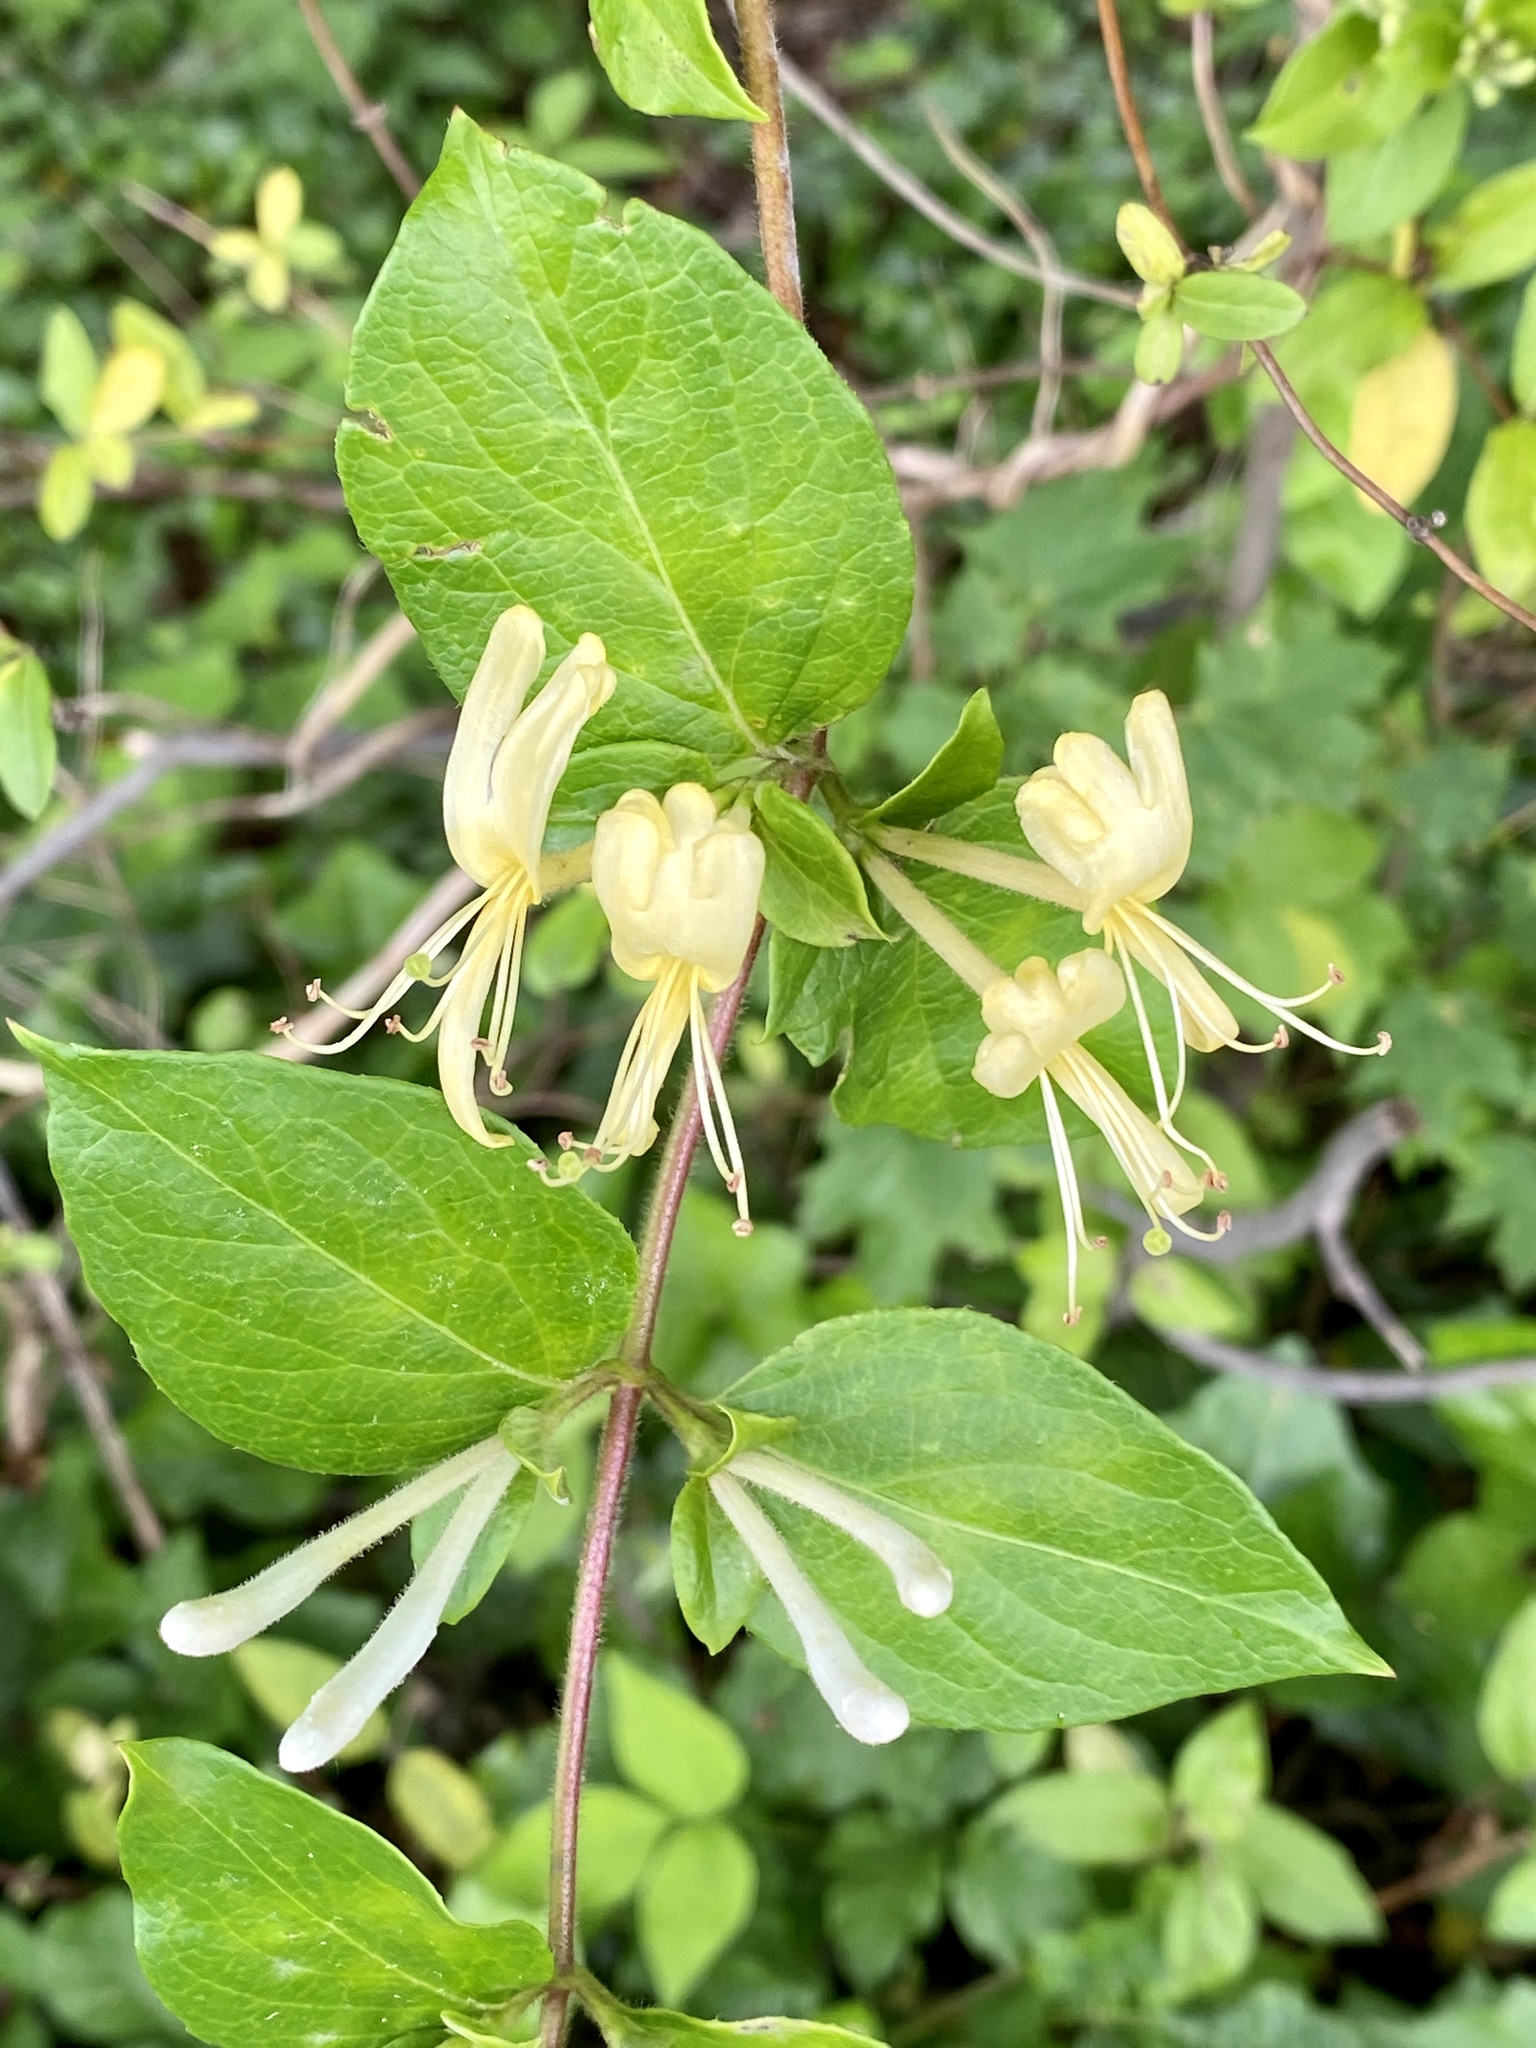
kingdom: Plantae
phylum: Tracheophyta
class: Magnoliopsida
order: Dipsacales
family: Caprifoliaceae
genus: Lonicera
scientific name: Lonicera japonica
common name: Japanese honeysuckle
